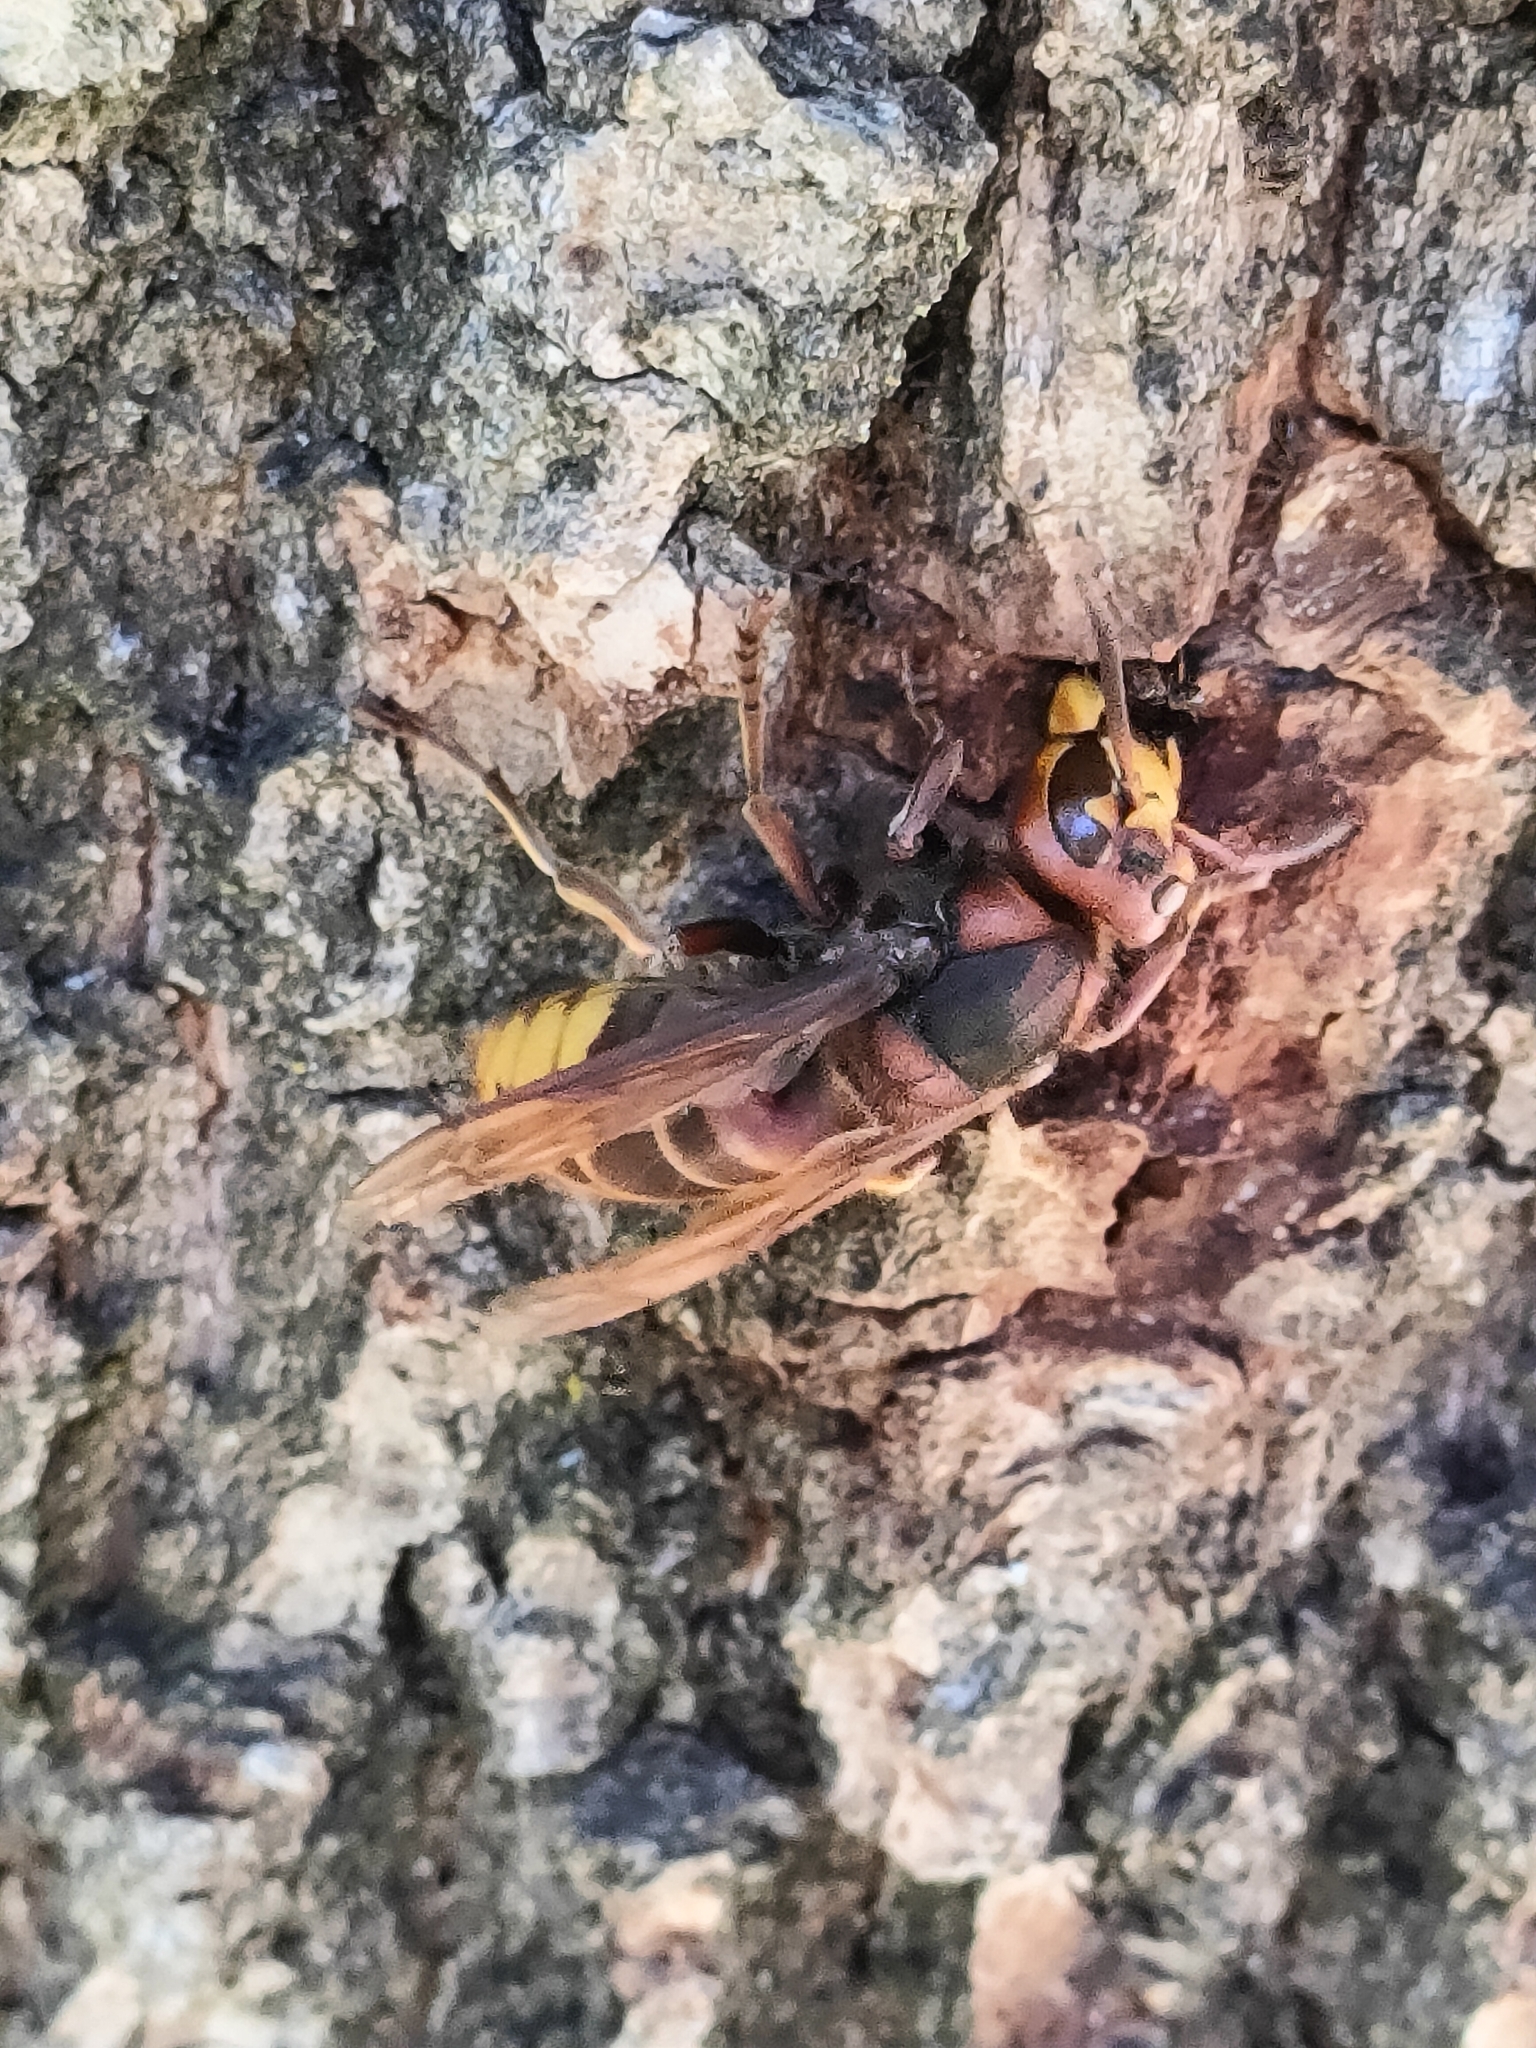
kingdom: Animalia
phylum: Arthropoda
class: Insecta
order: Hymenoptera
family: Vespidae
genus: Vespa
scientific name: Vespa crabro
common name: Hornet
